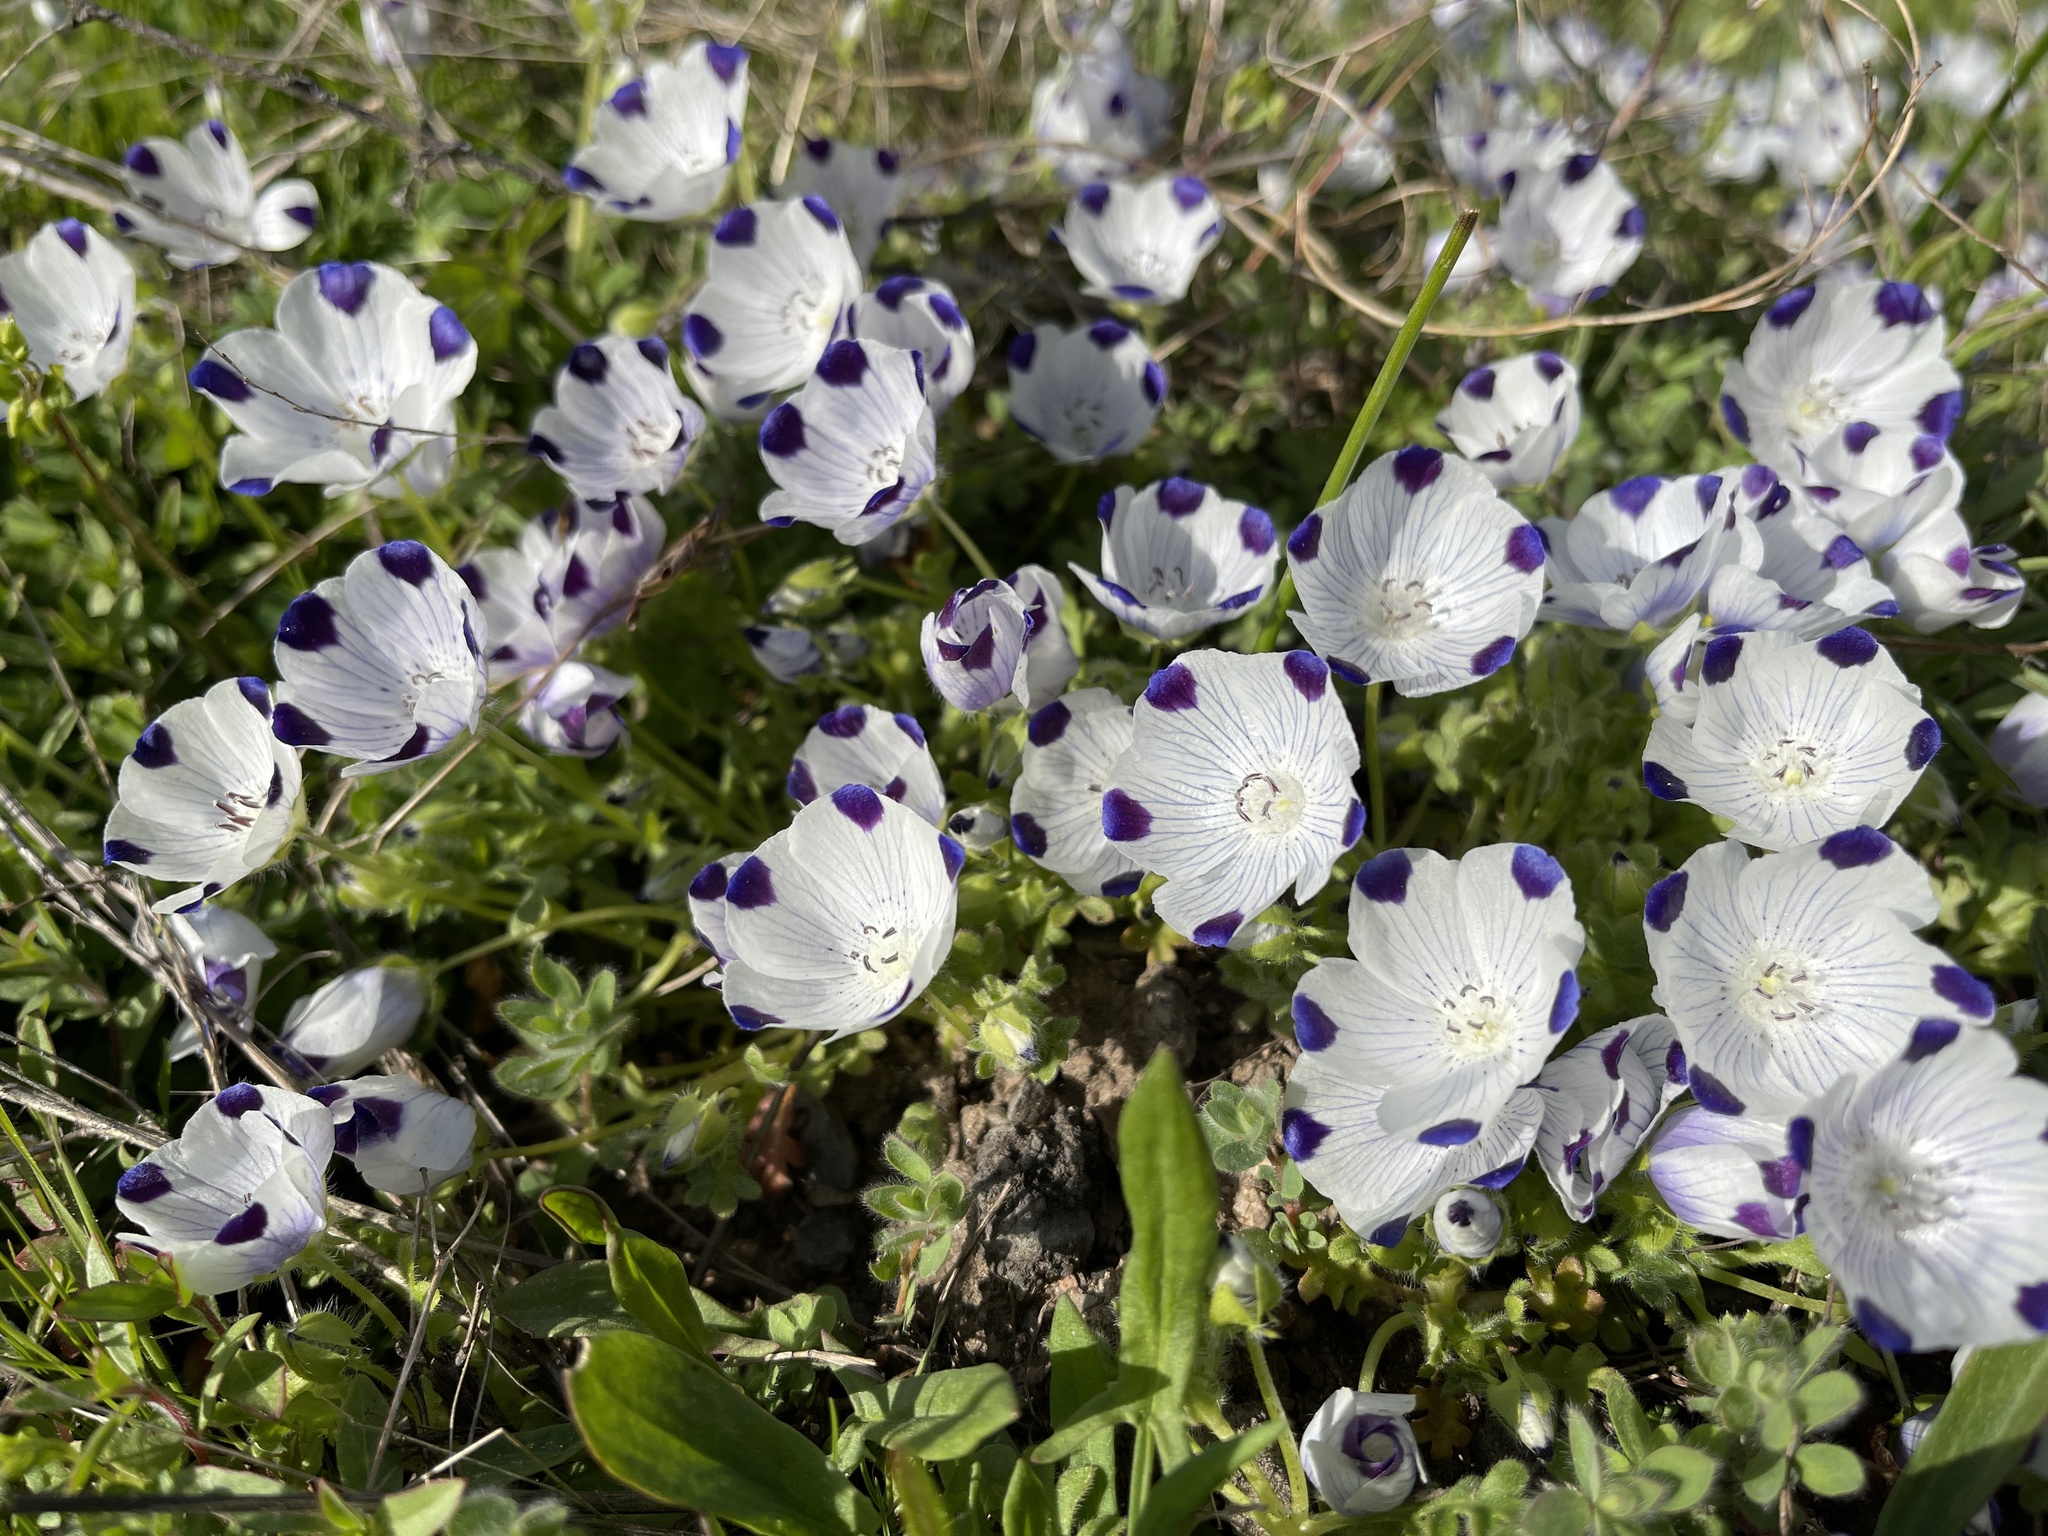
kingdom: Plantae
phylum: Tracheophyta
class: Magnoliopsida
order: Boraginales
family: Hydrophyllaceae
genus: Nemophila
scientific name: Nemophila maculata
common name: Fivespot
